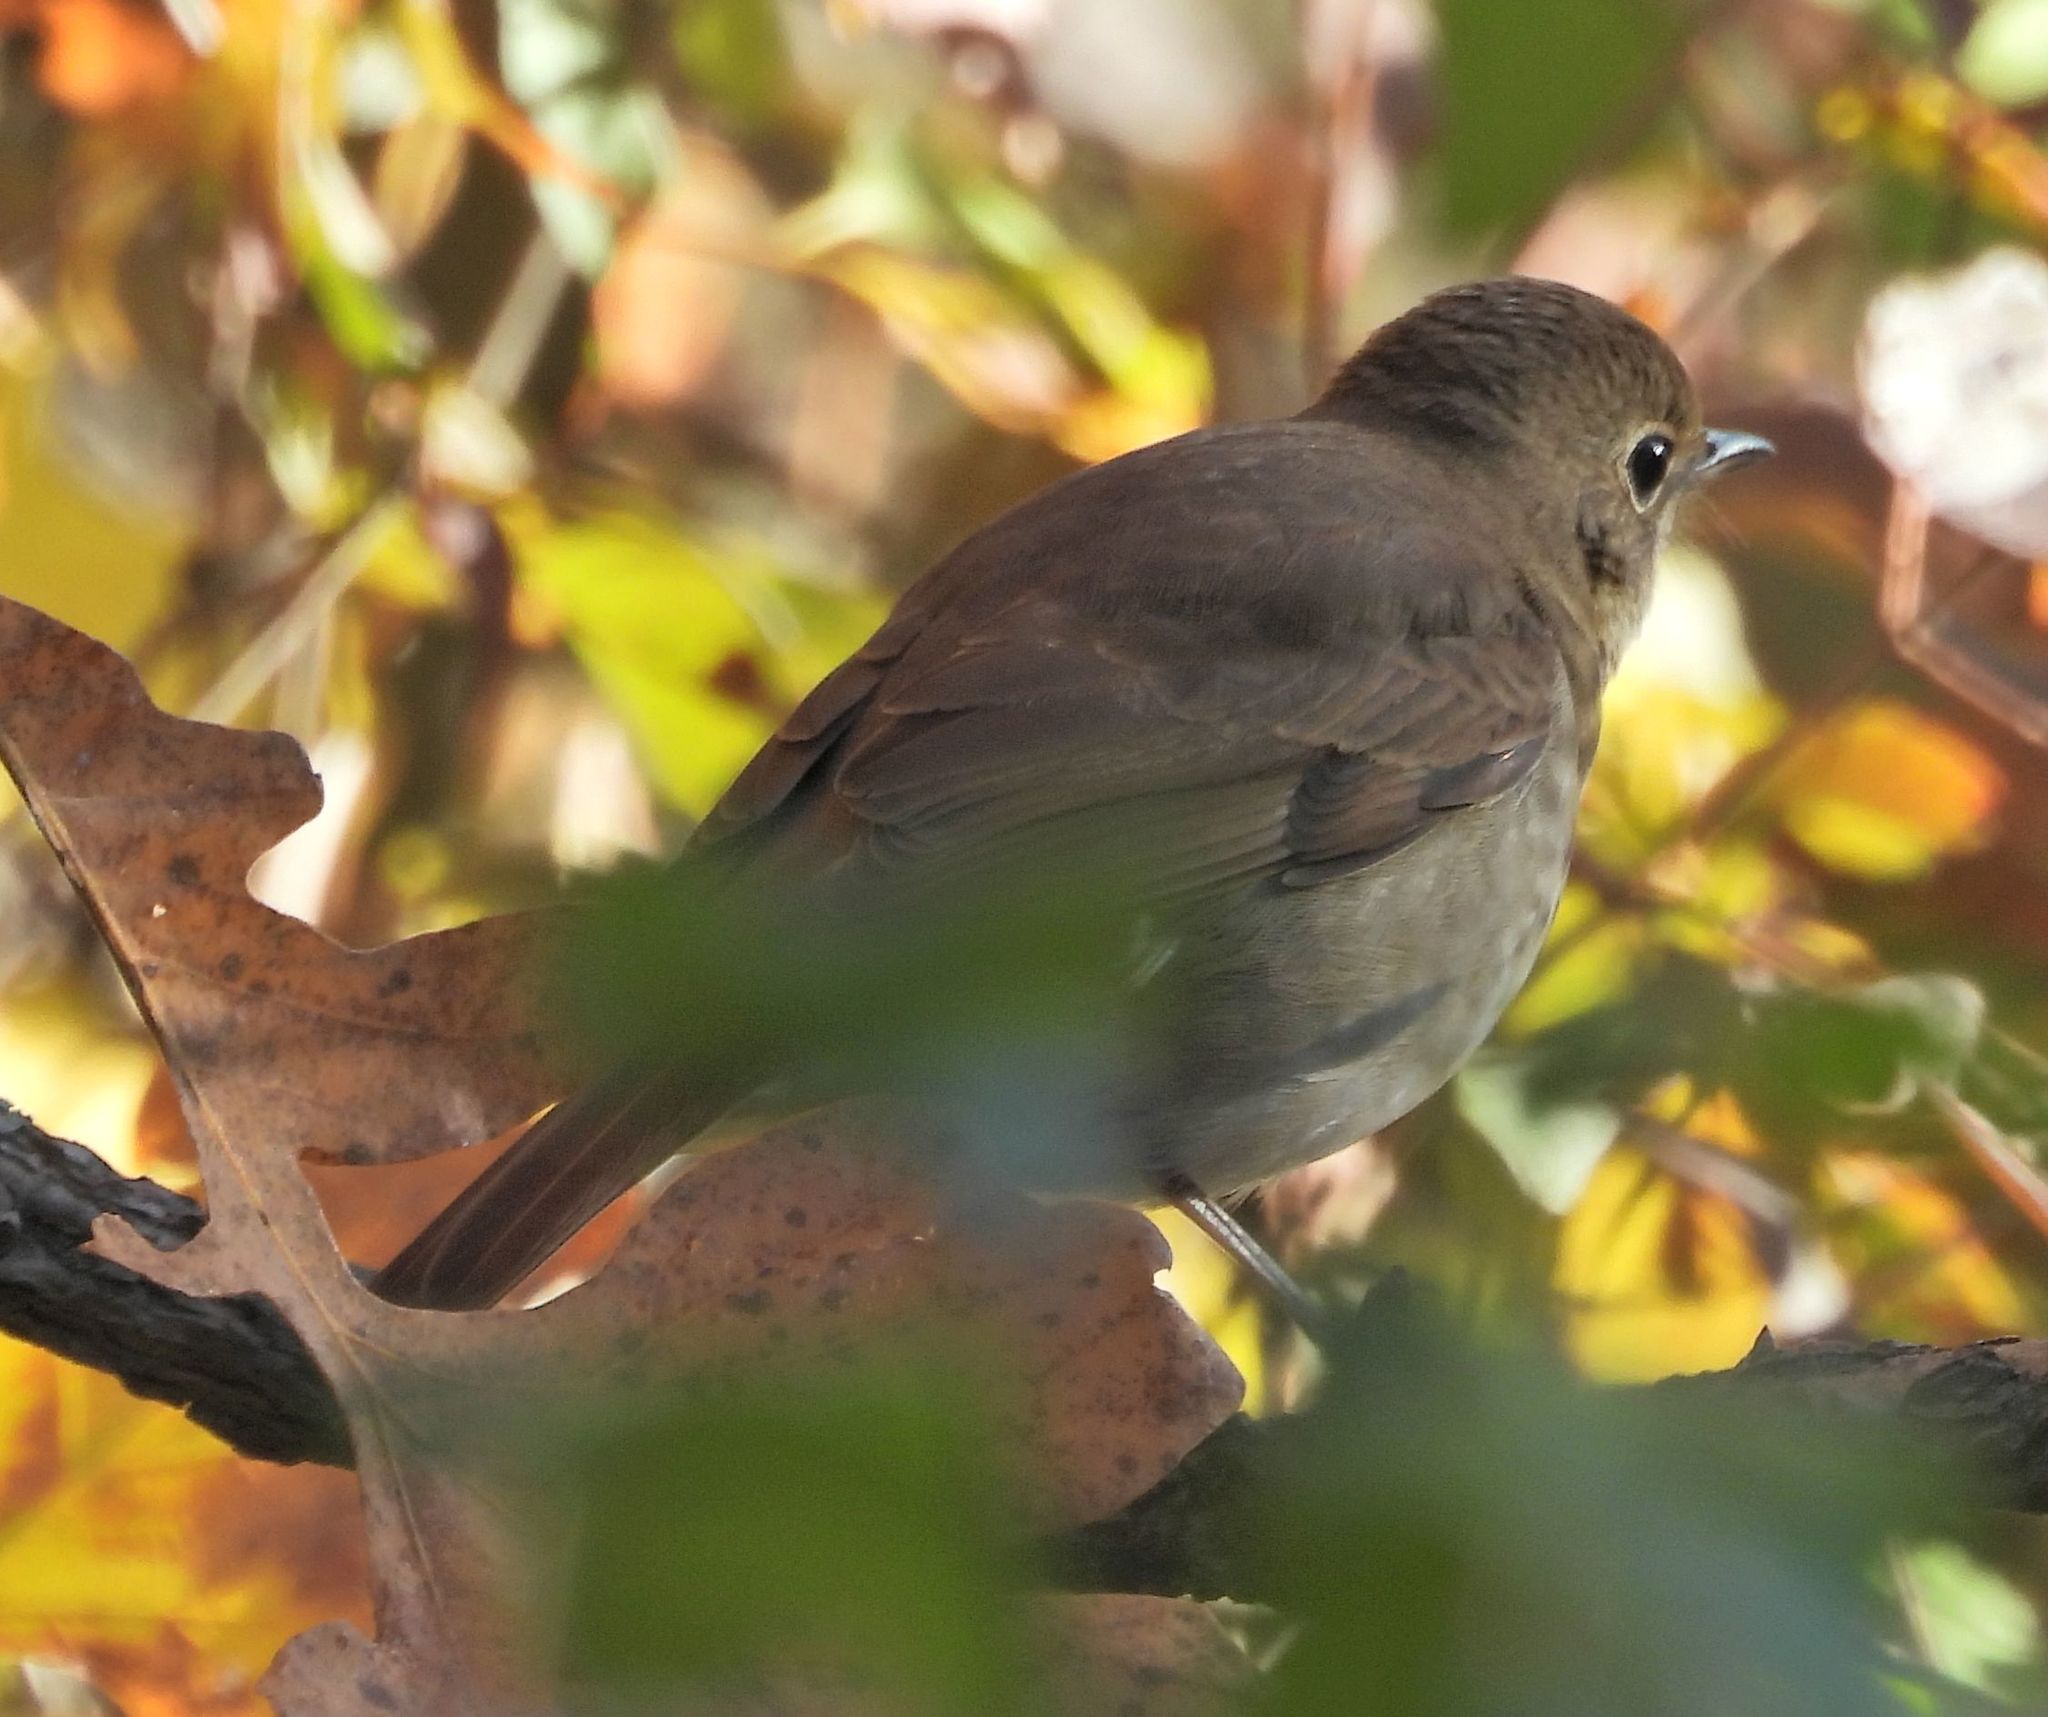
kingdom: Animalia
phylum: Chordata
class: Aves
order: Passeriformes
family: Turdidae
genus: Catharus
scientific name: Catharus guttatus
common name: Hermit thrush
